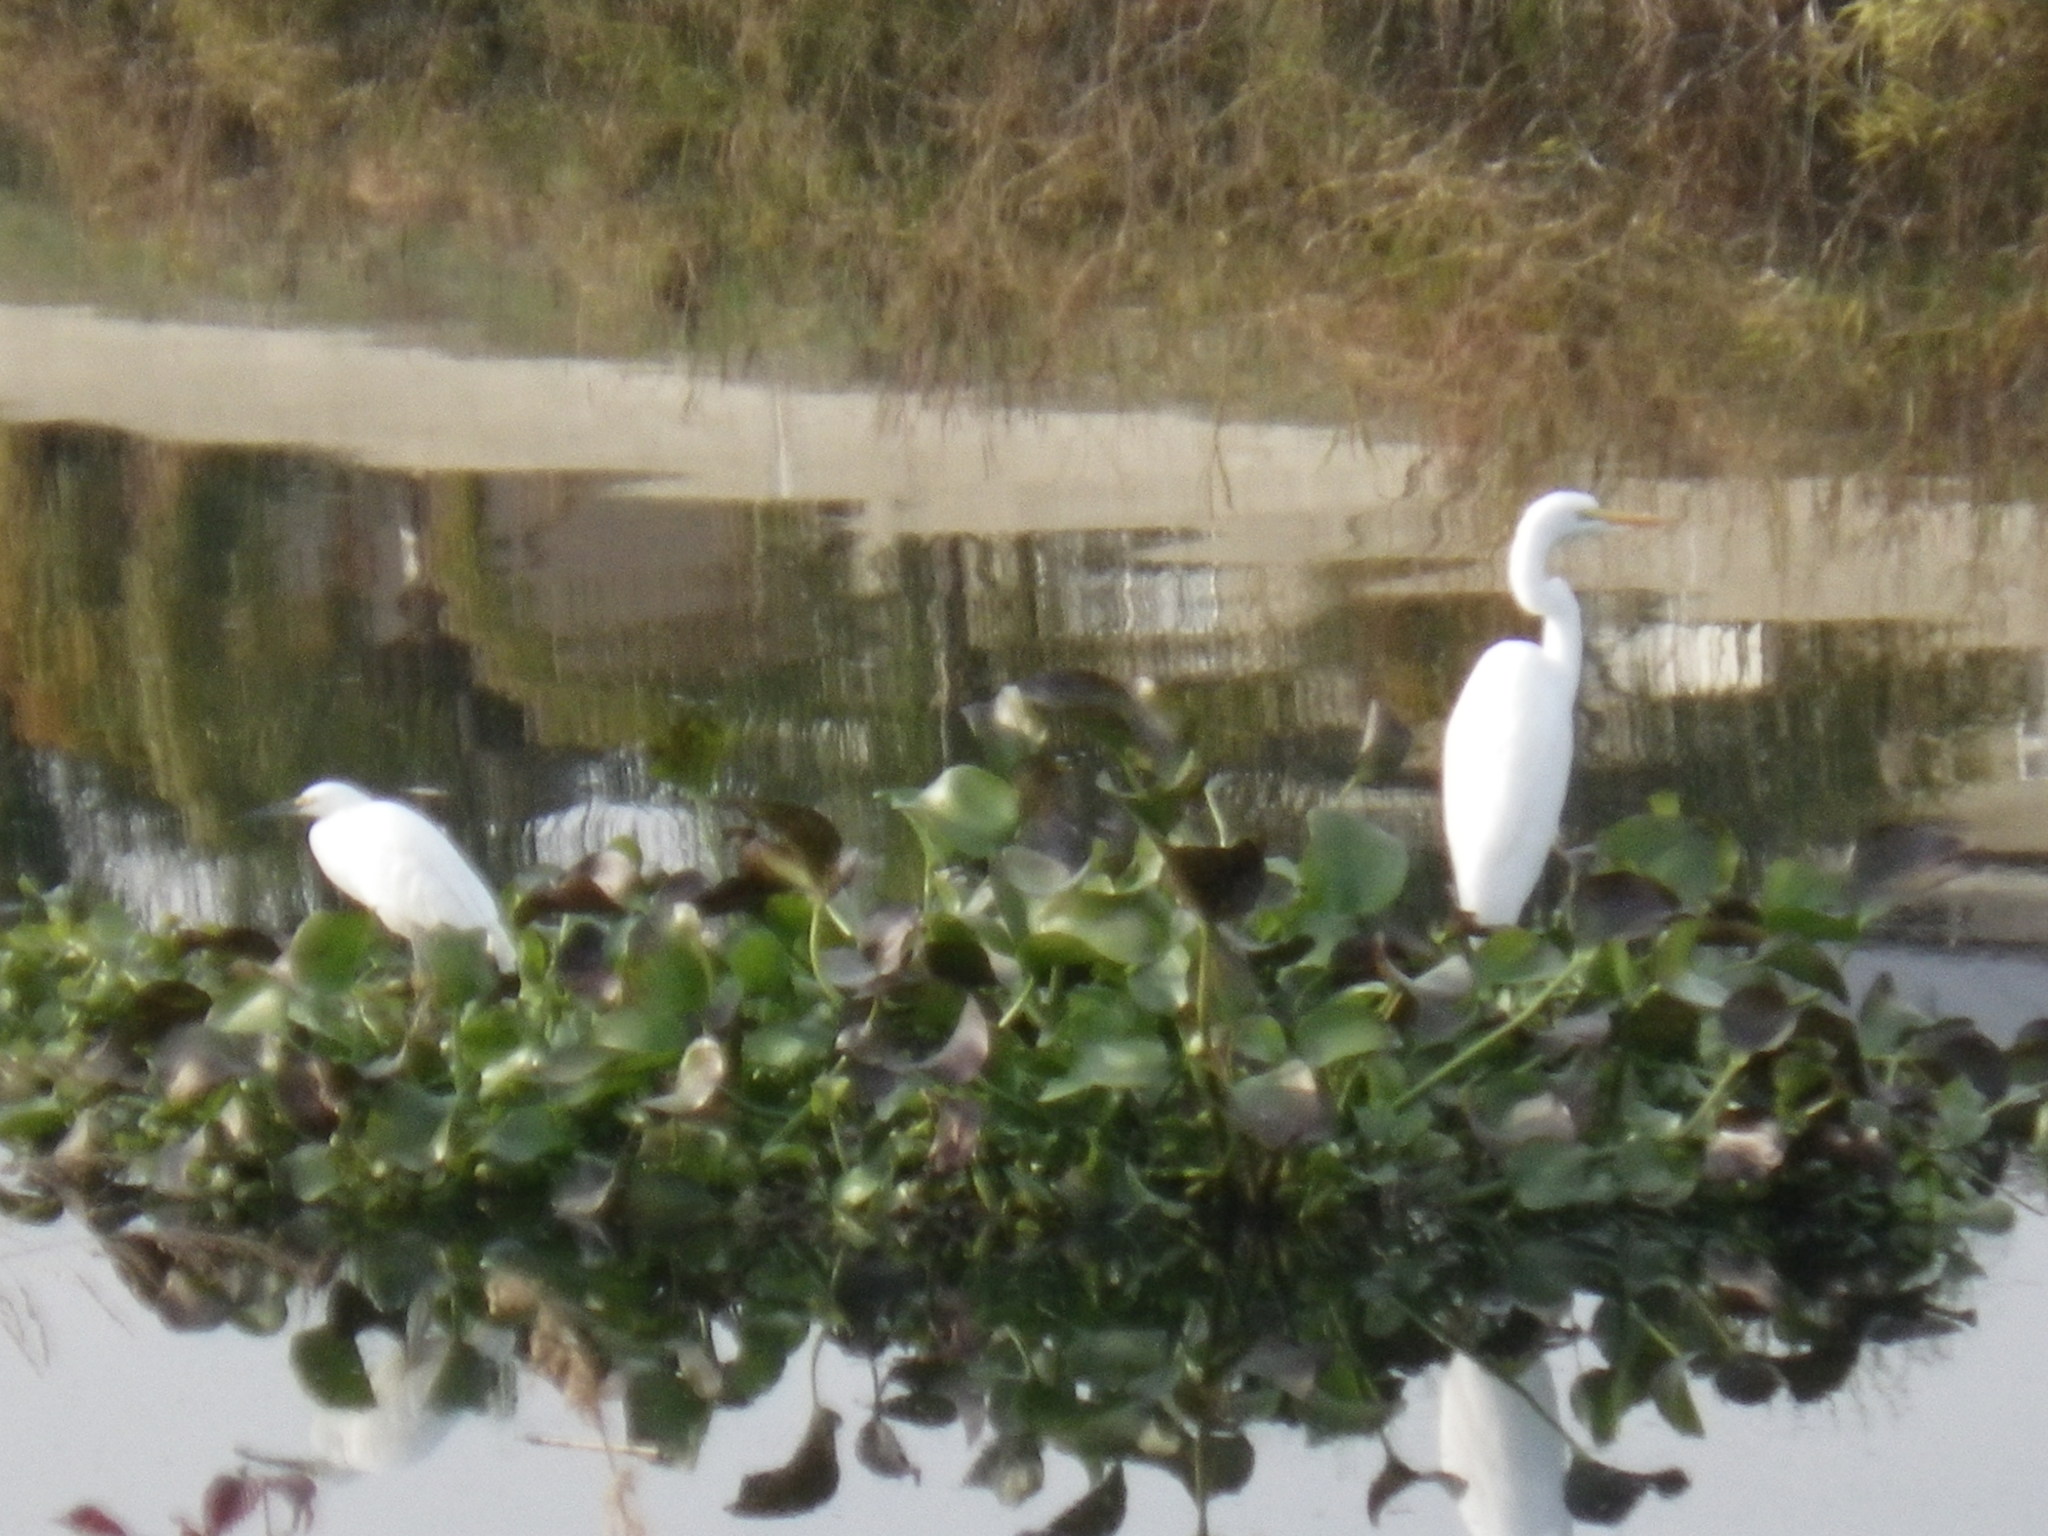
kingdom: Animalia
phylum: Chordata
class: Aves
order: Pelecaniformes
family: Ardeidae
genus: Ardea
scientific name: Ardea alba
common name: Great egret
